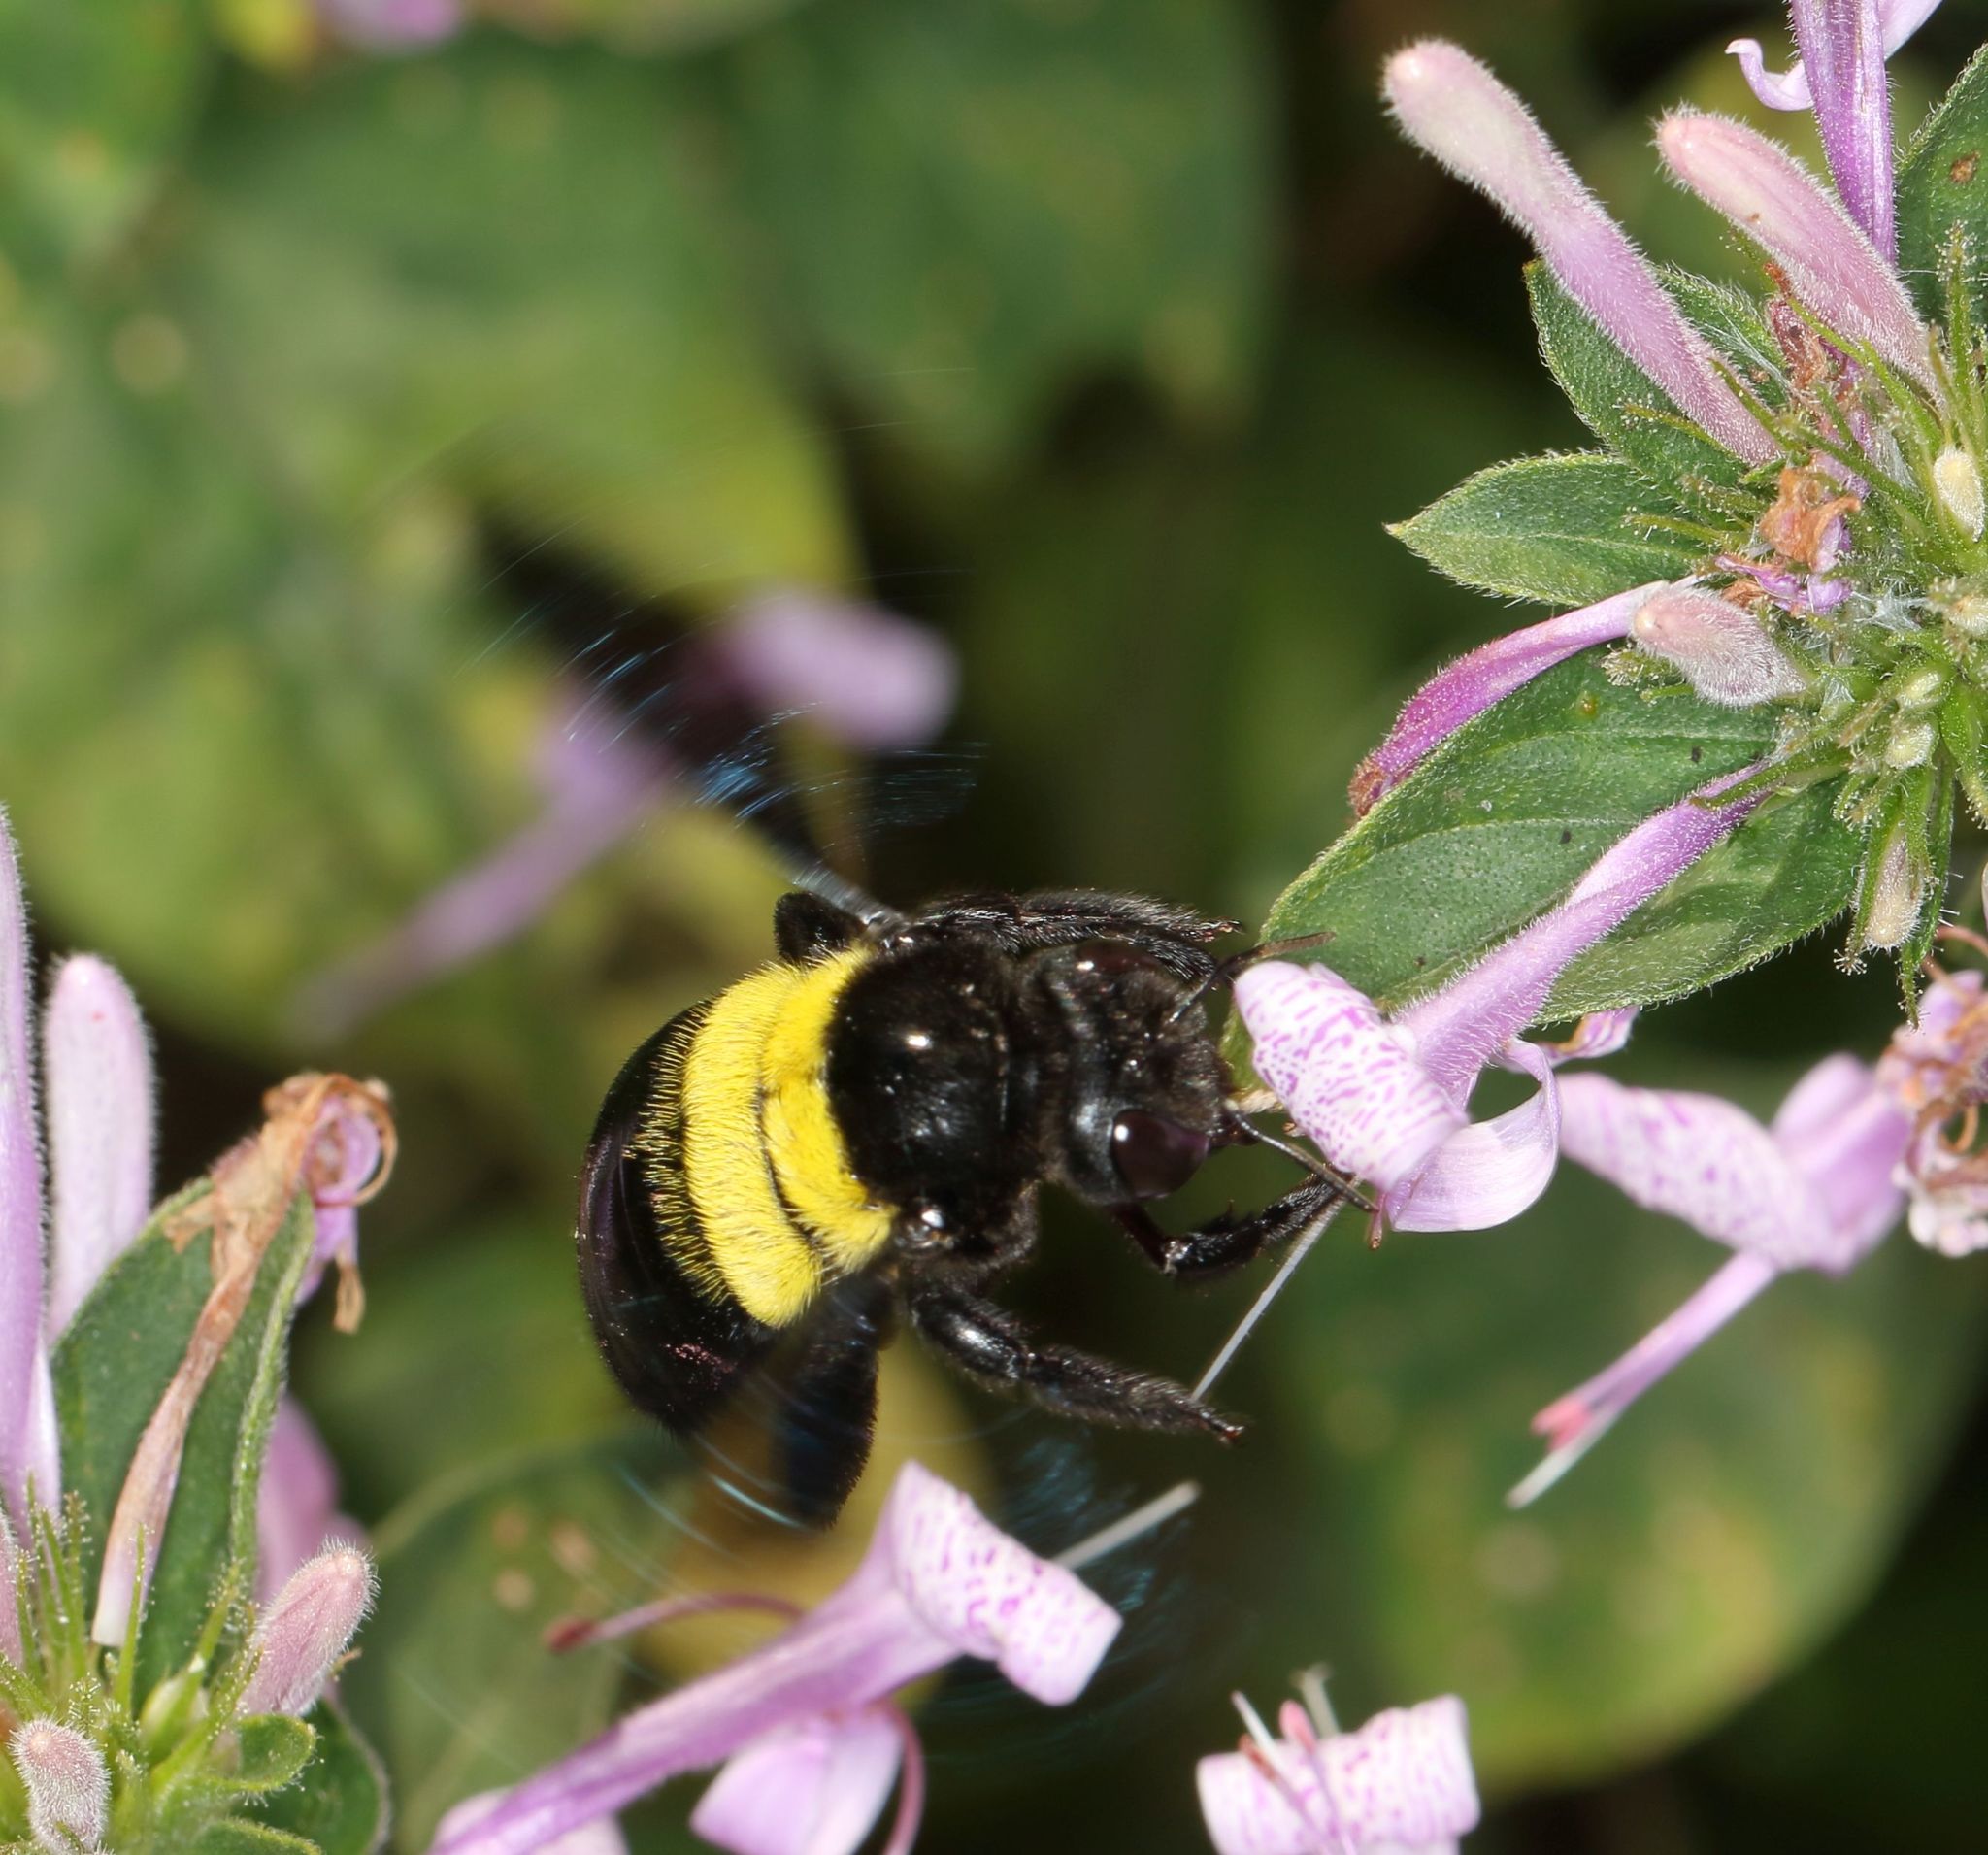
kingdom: Animalia
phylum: Arthropoda
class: Insecta
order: Hymenoptera
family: Apidae
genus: Xylocopa
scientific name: Xylocopa caffra
